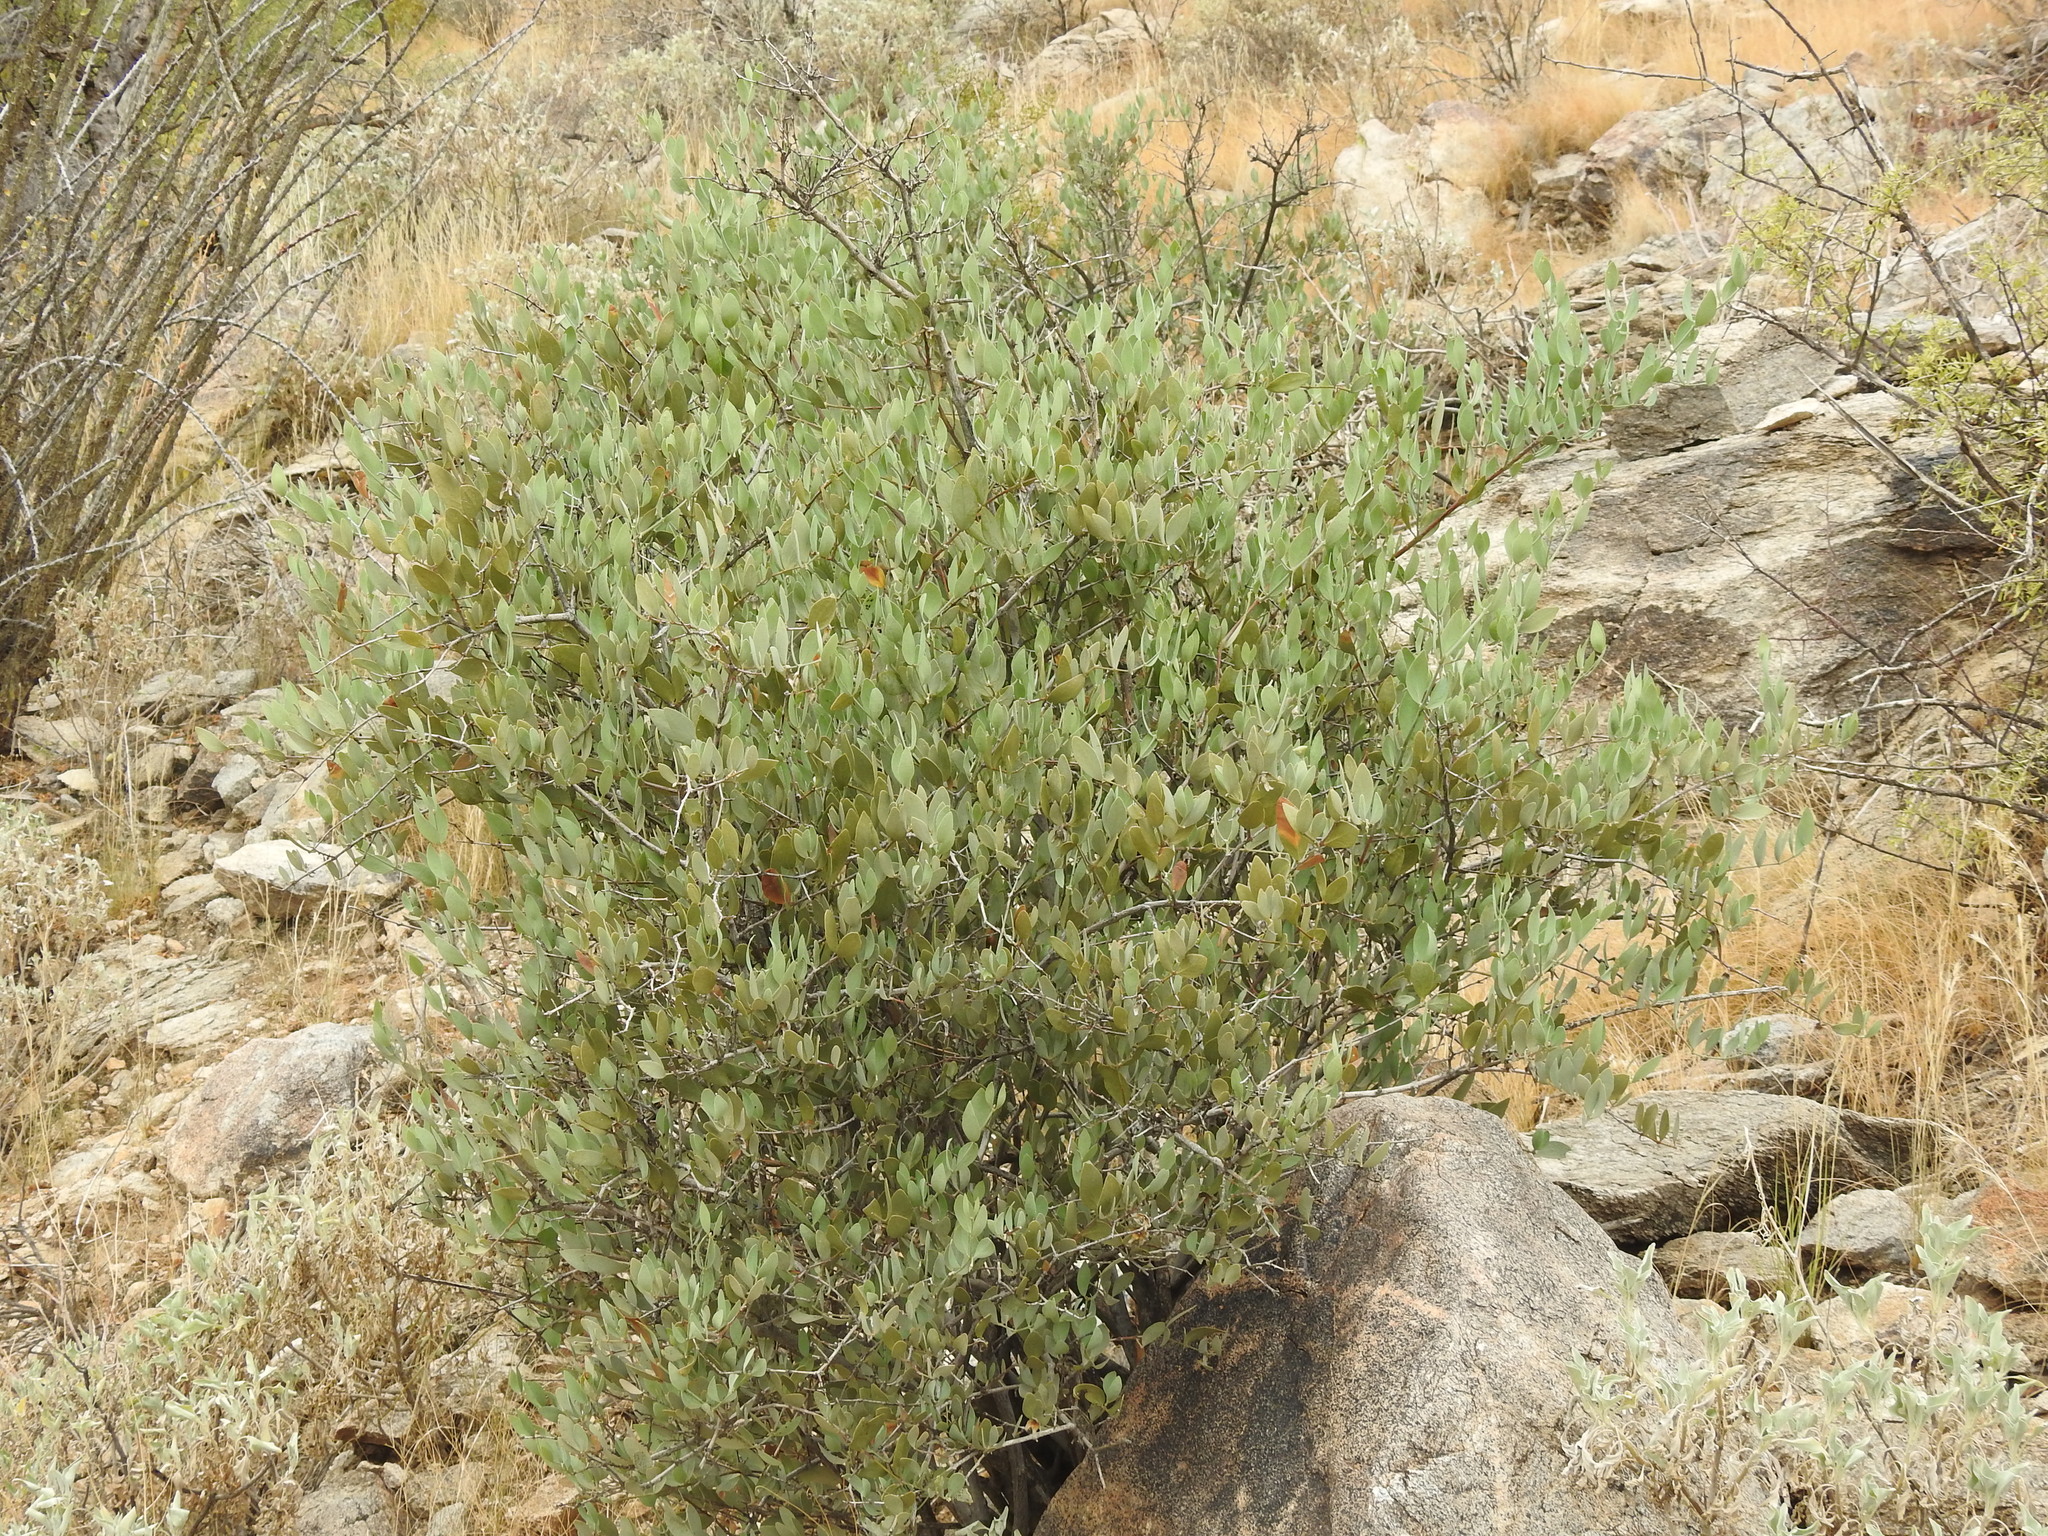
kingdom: Plantae
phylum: Tracheophyta
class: Magnoliopsida
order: Caryophyllales
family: Simmondsiaceae
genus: Simmondsia
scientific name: Simmondsia chinensis
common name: Jojoba
